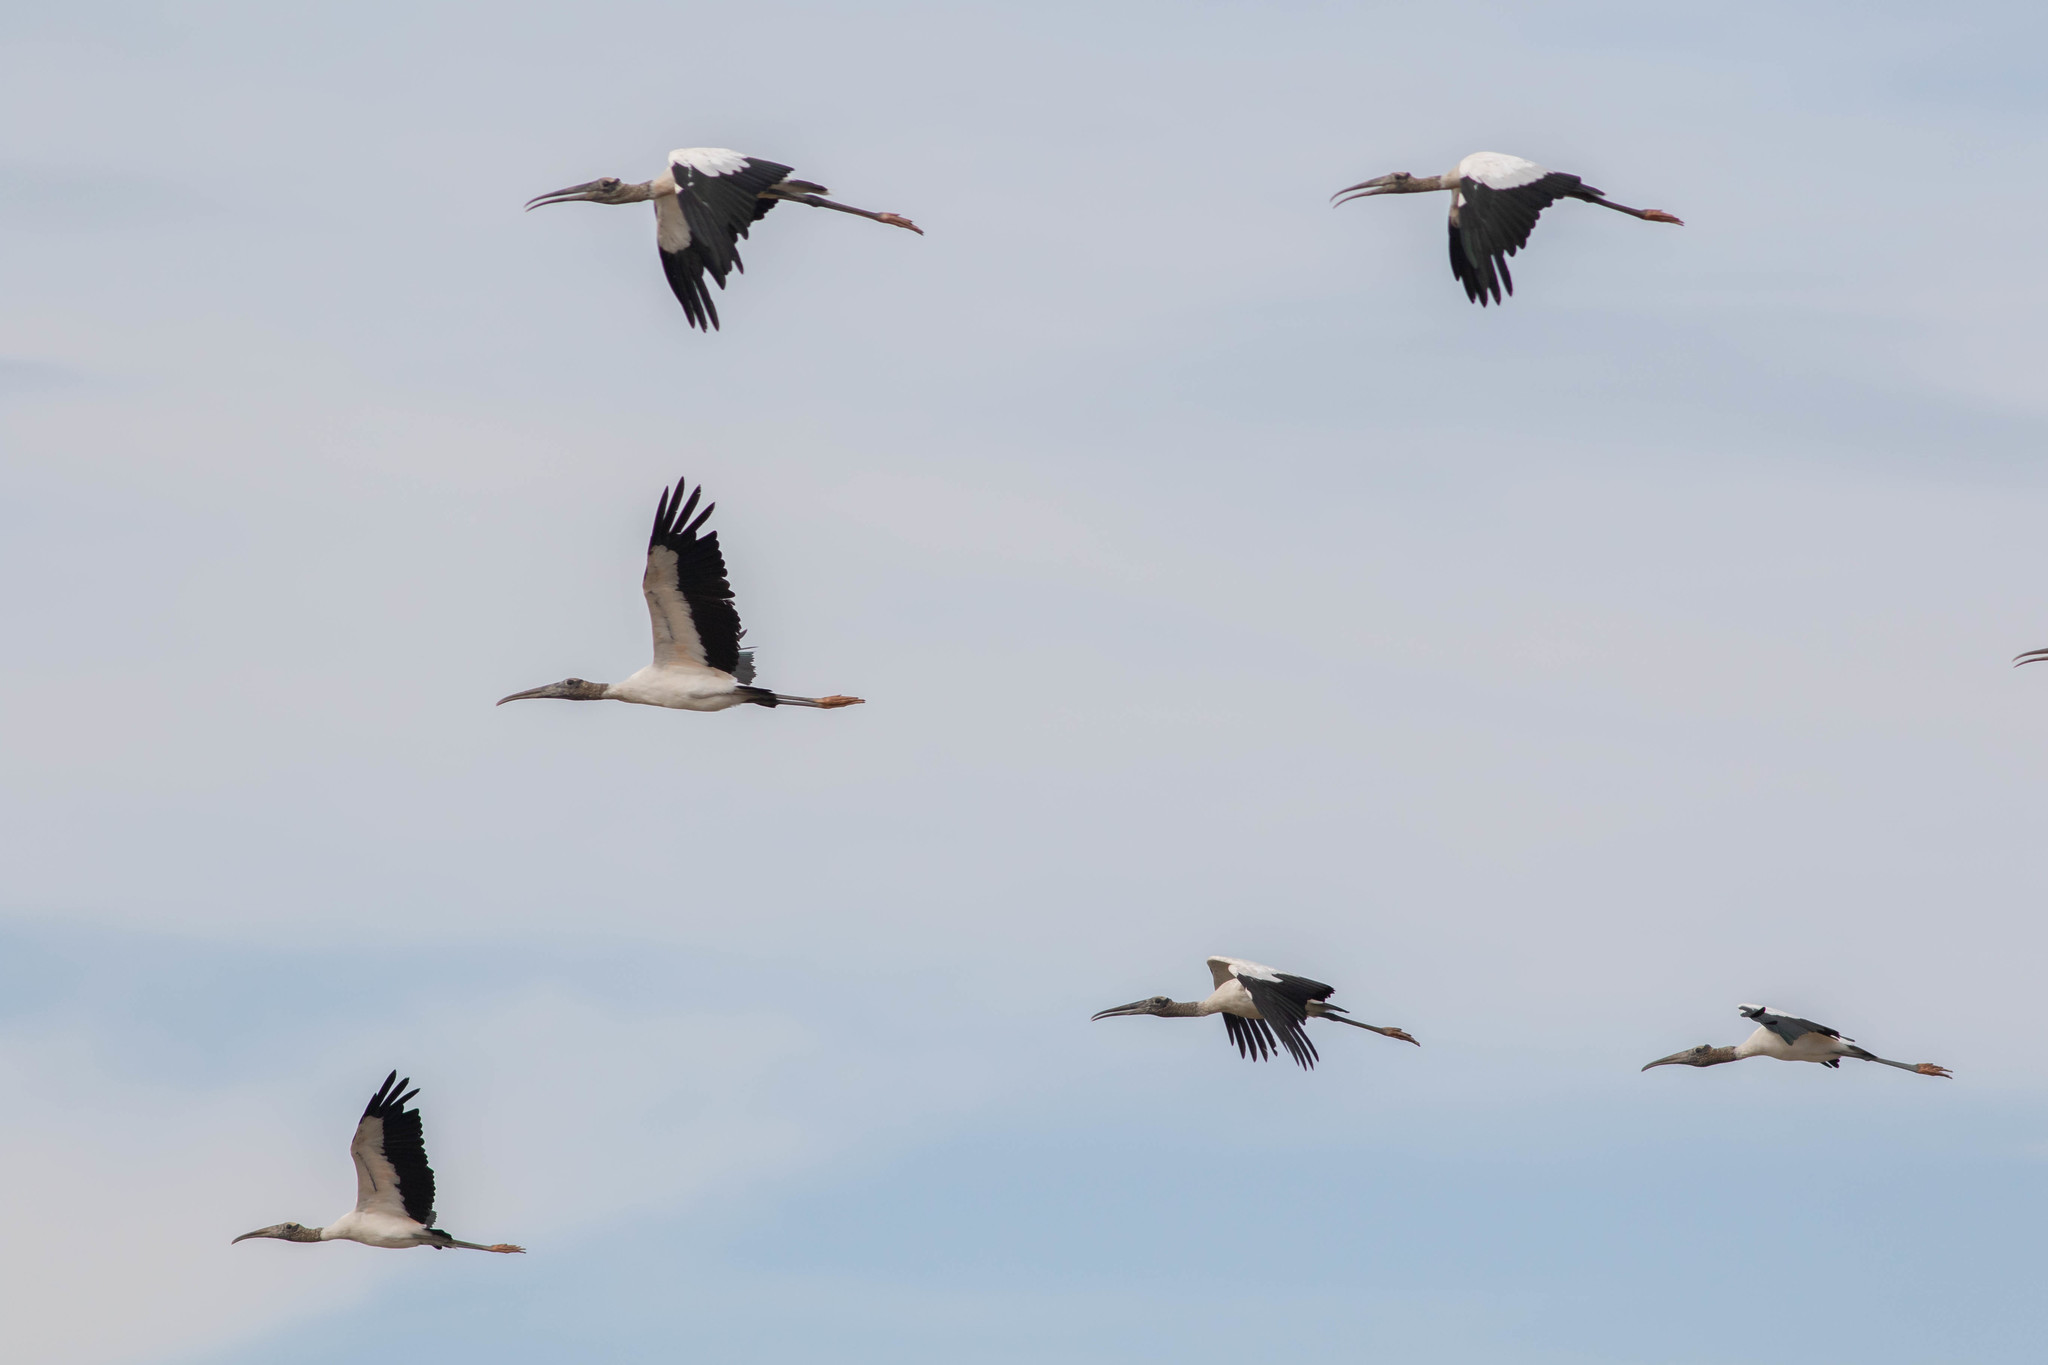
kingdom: Animalia
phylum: Chordata
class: Aves
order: Ciconiiformes
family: Ciconiidae
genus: Mycteria
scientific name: Mycteria americana
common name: Wood stork
